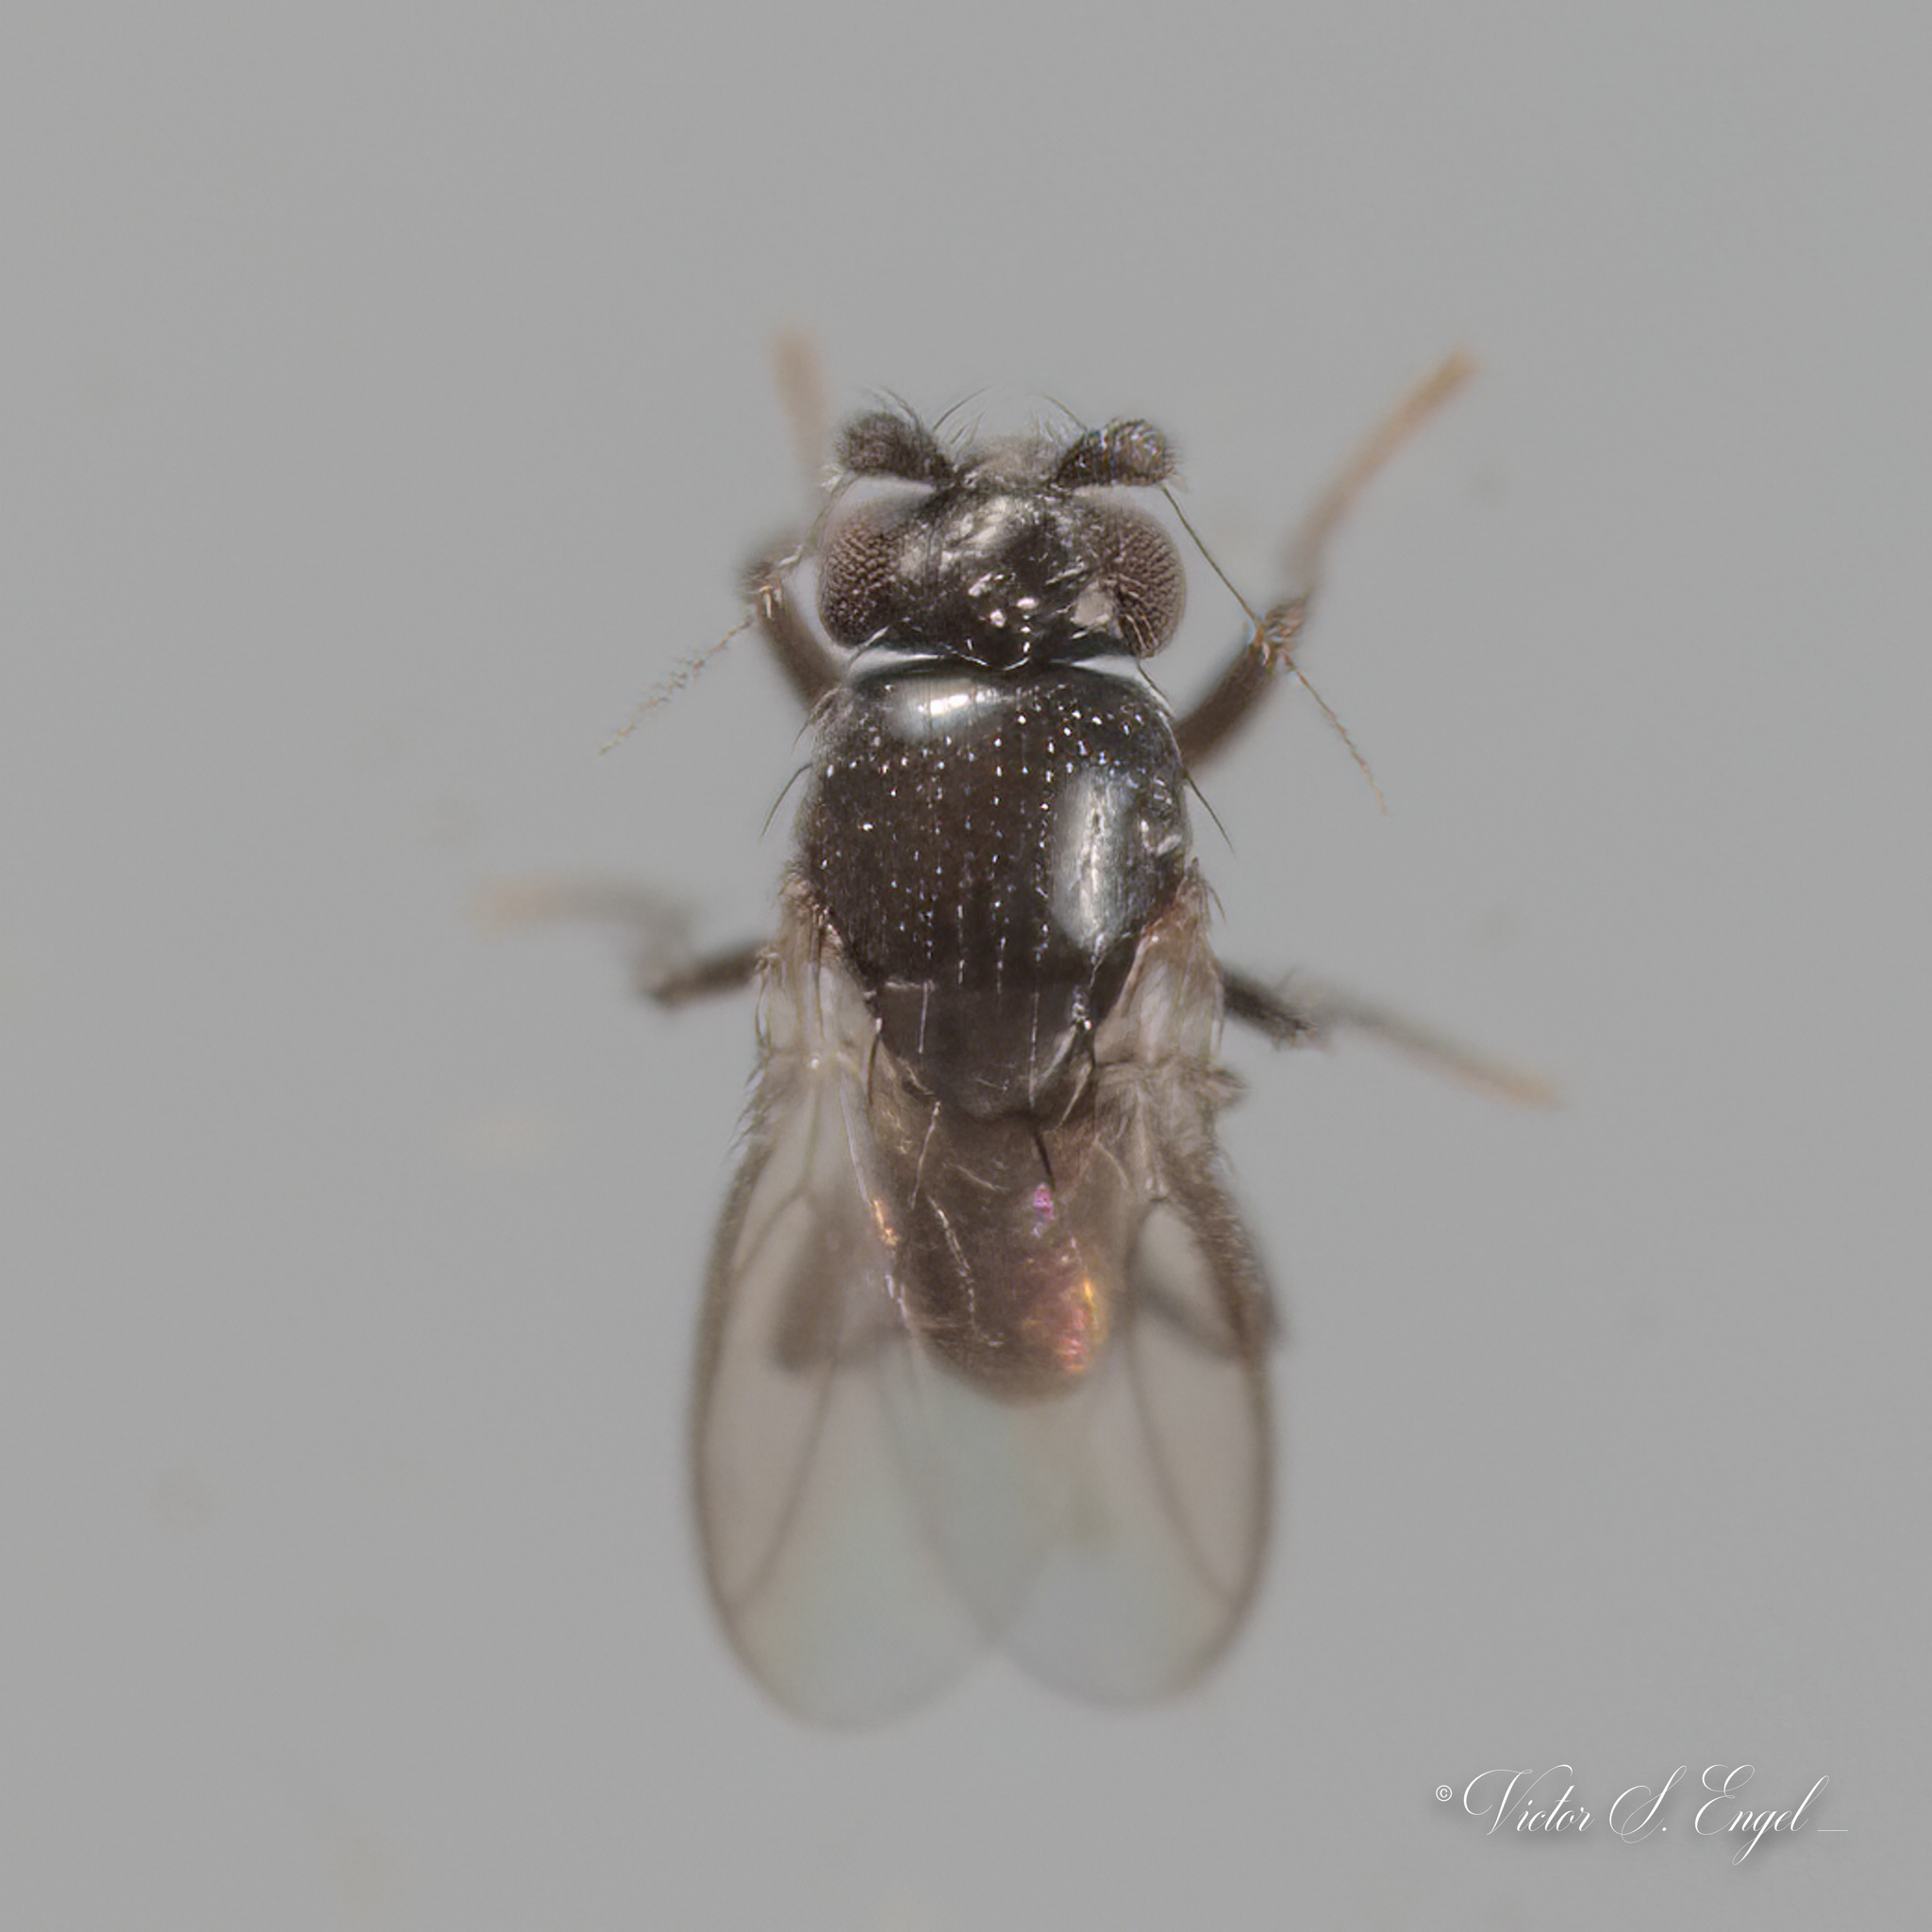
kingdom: Animalia
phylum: Arthropoda
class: Insecta
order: Diptera
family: Sphaeroceridae
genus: Trachyopella
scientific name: Trachyopella
